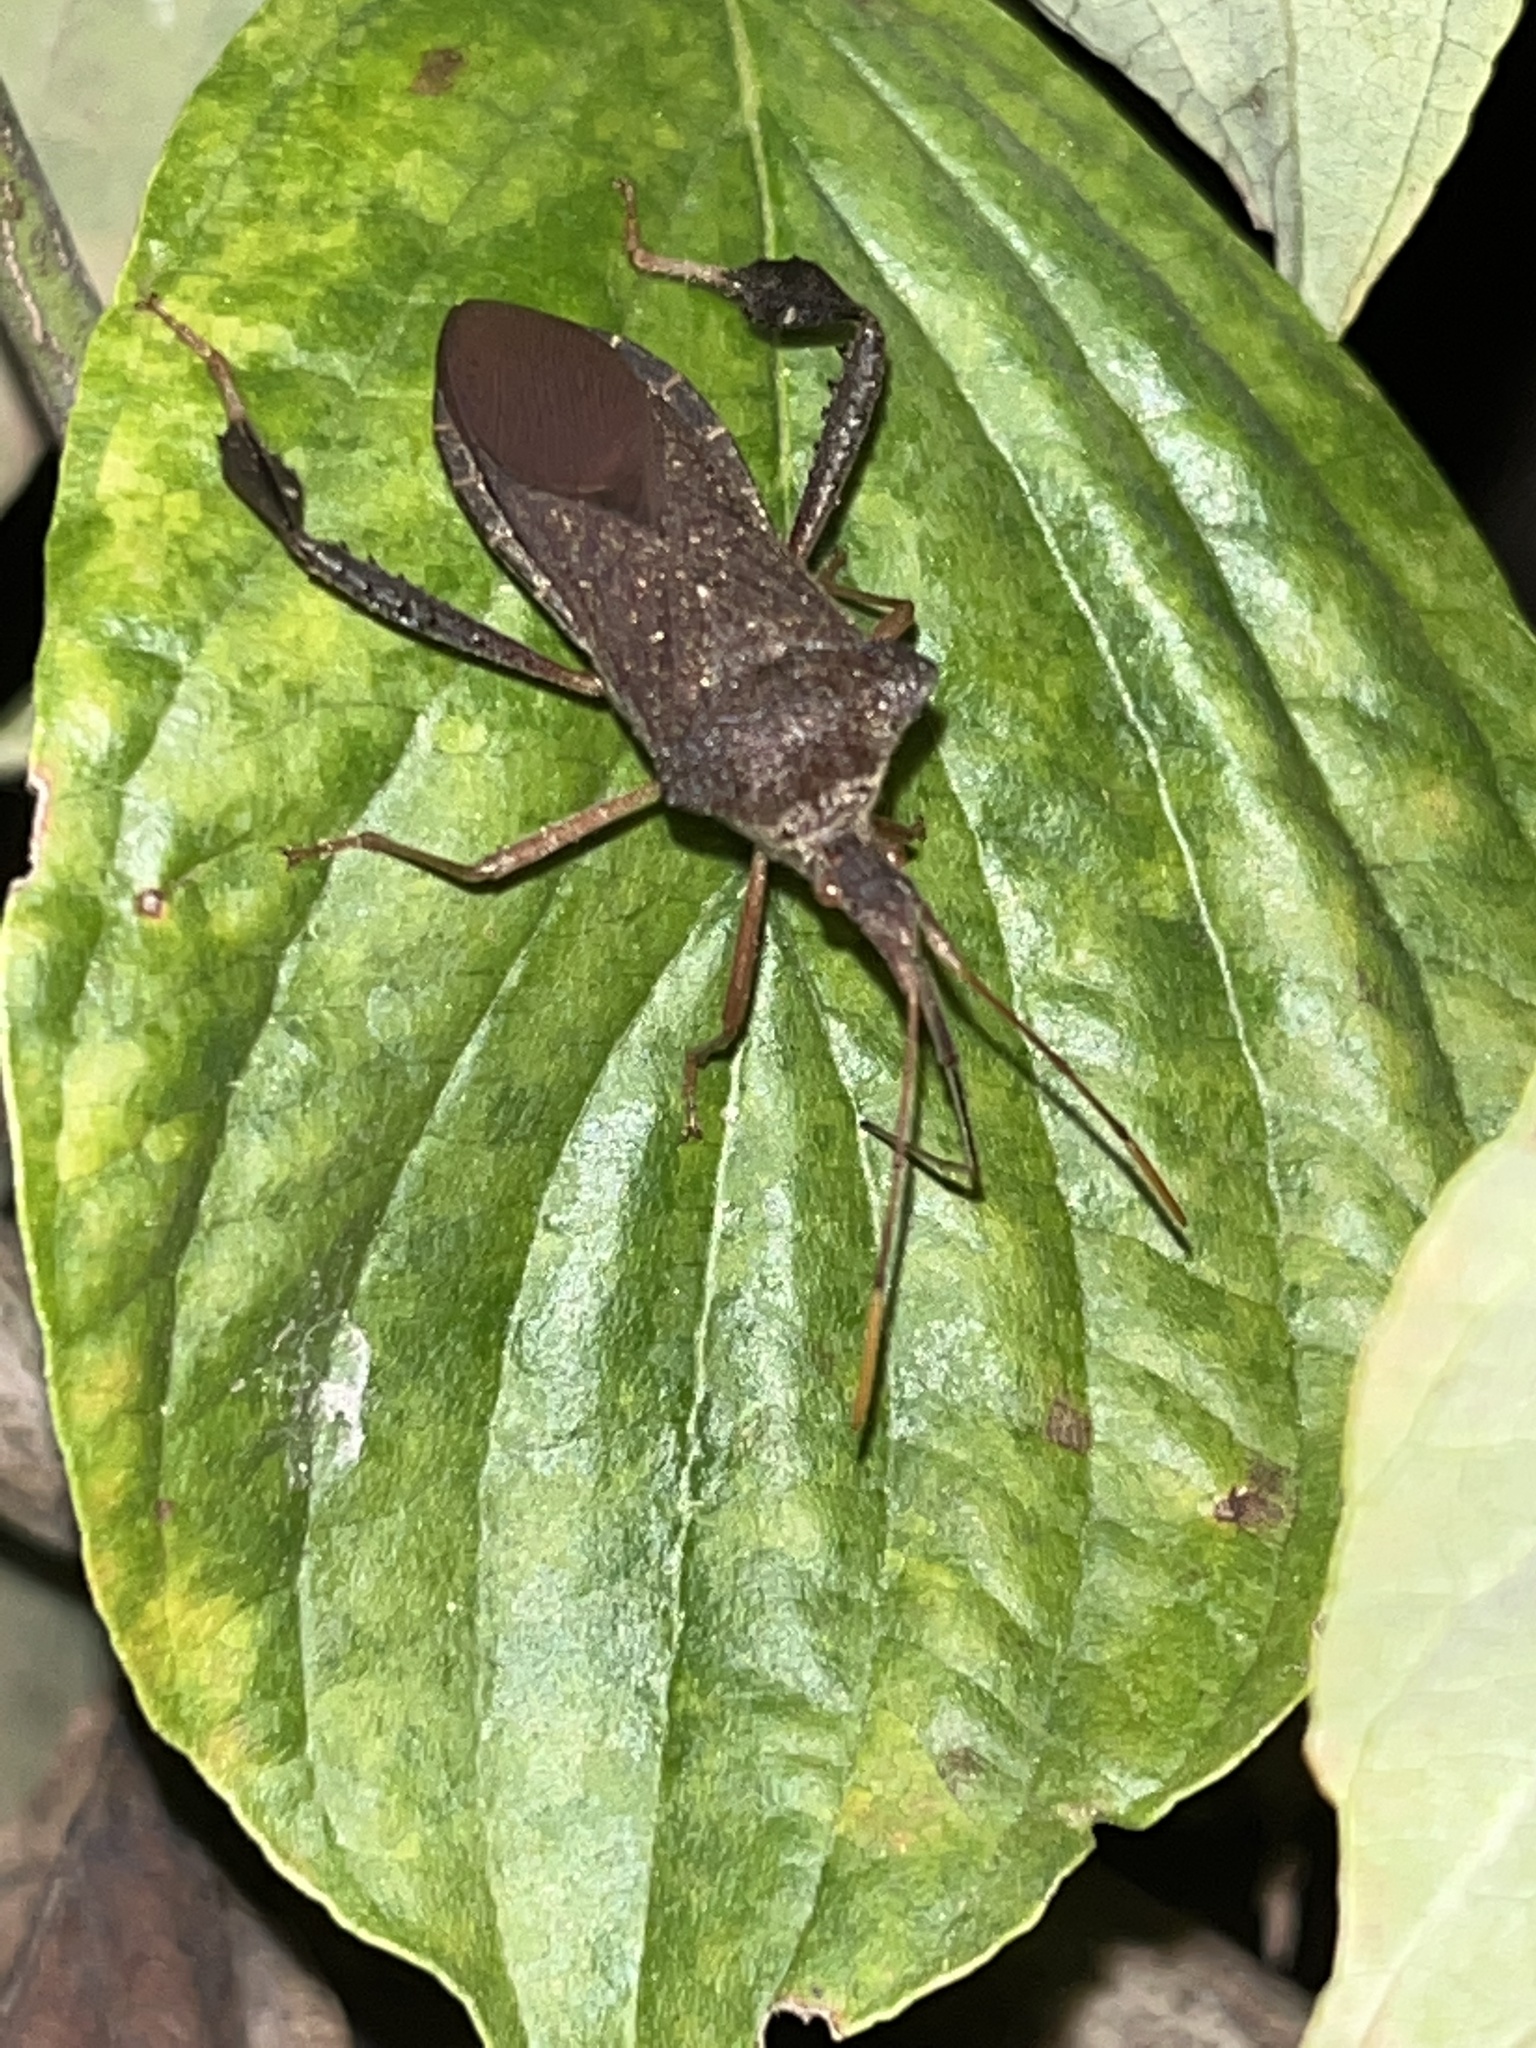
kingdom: Animalia
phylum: Arthropoda
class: Insecta
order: Hemiptera
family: Coreidae
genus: Leptoglossus
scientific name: Leptoglossus fulvicornis
